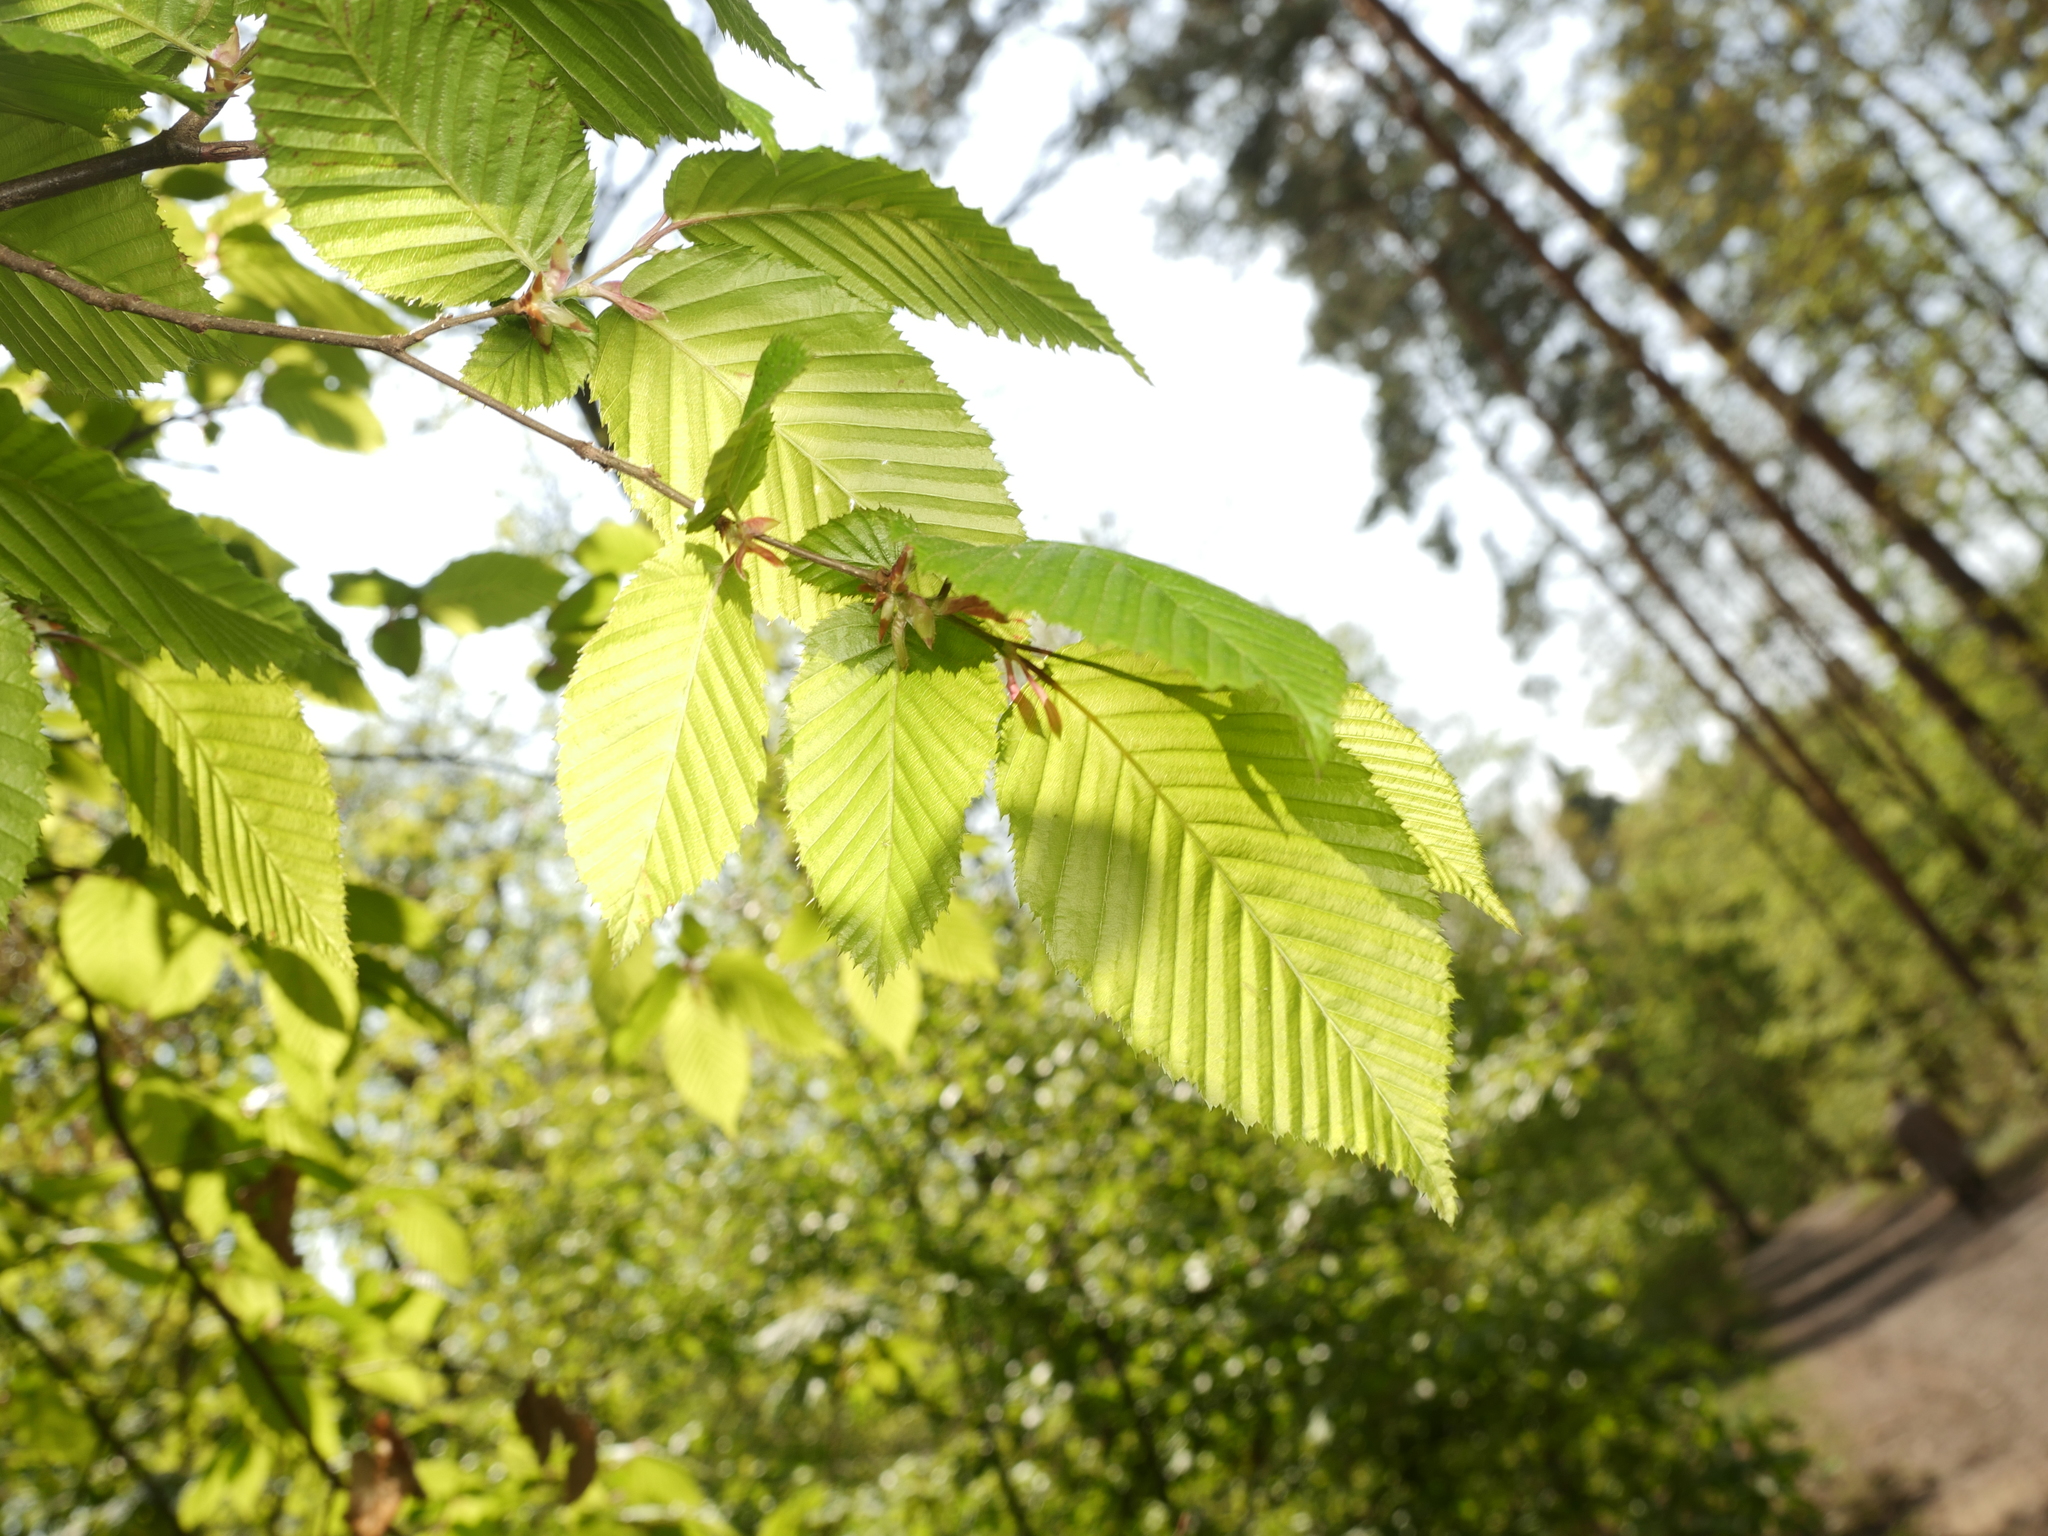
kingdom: Plantae
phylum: Tracheophyta
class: Magnoliopsida
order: Fagales
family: Betulaceae
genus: Carpinus
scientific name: Carpinus betulus
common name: Hornbeam
